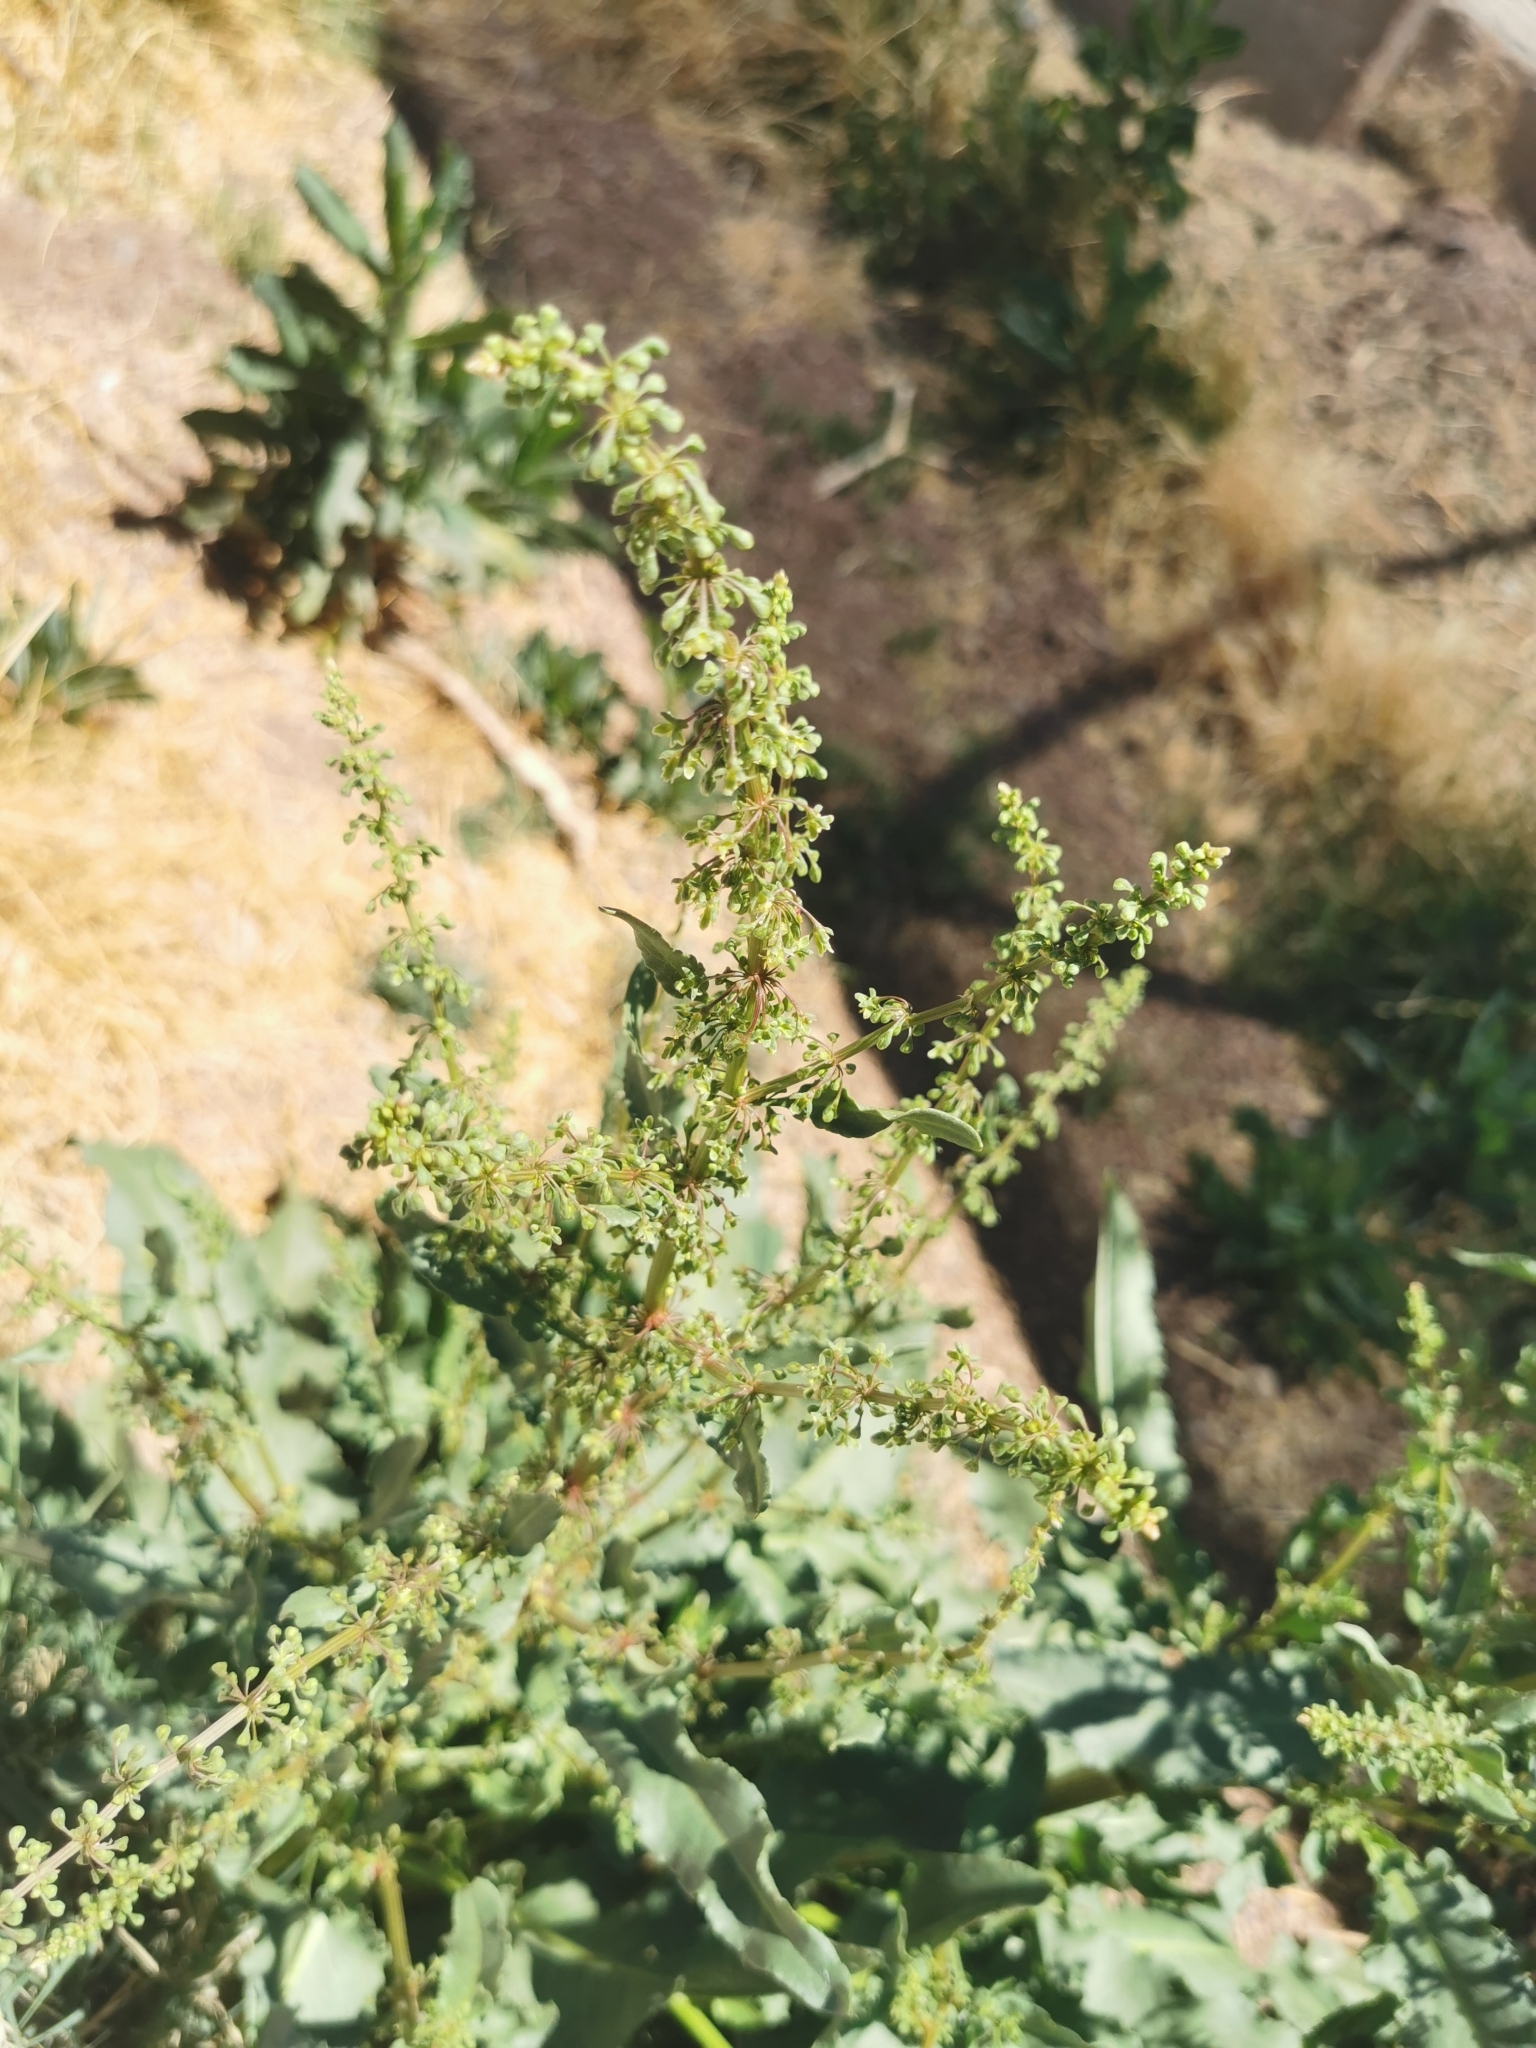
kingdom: Plantae
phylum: Tracheophyta
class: Magnoliopsida
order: Caryophyllales
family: Polygonaceae
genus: Rumex
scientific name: Rumex crispus
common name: Curled dock
